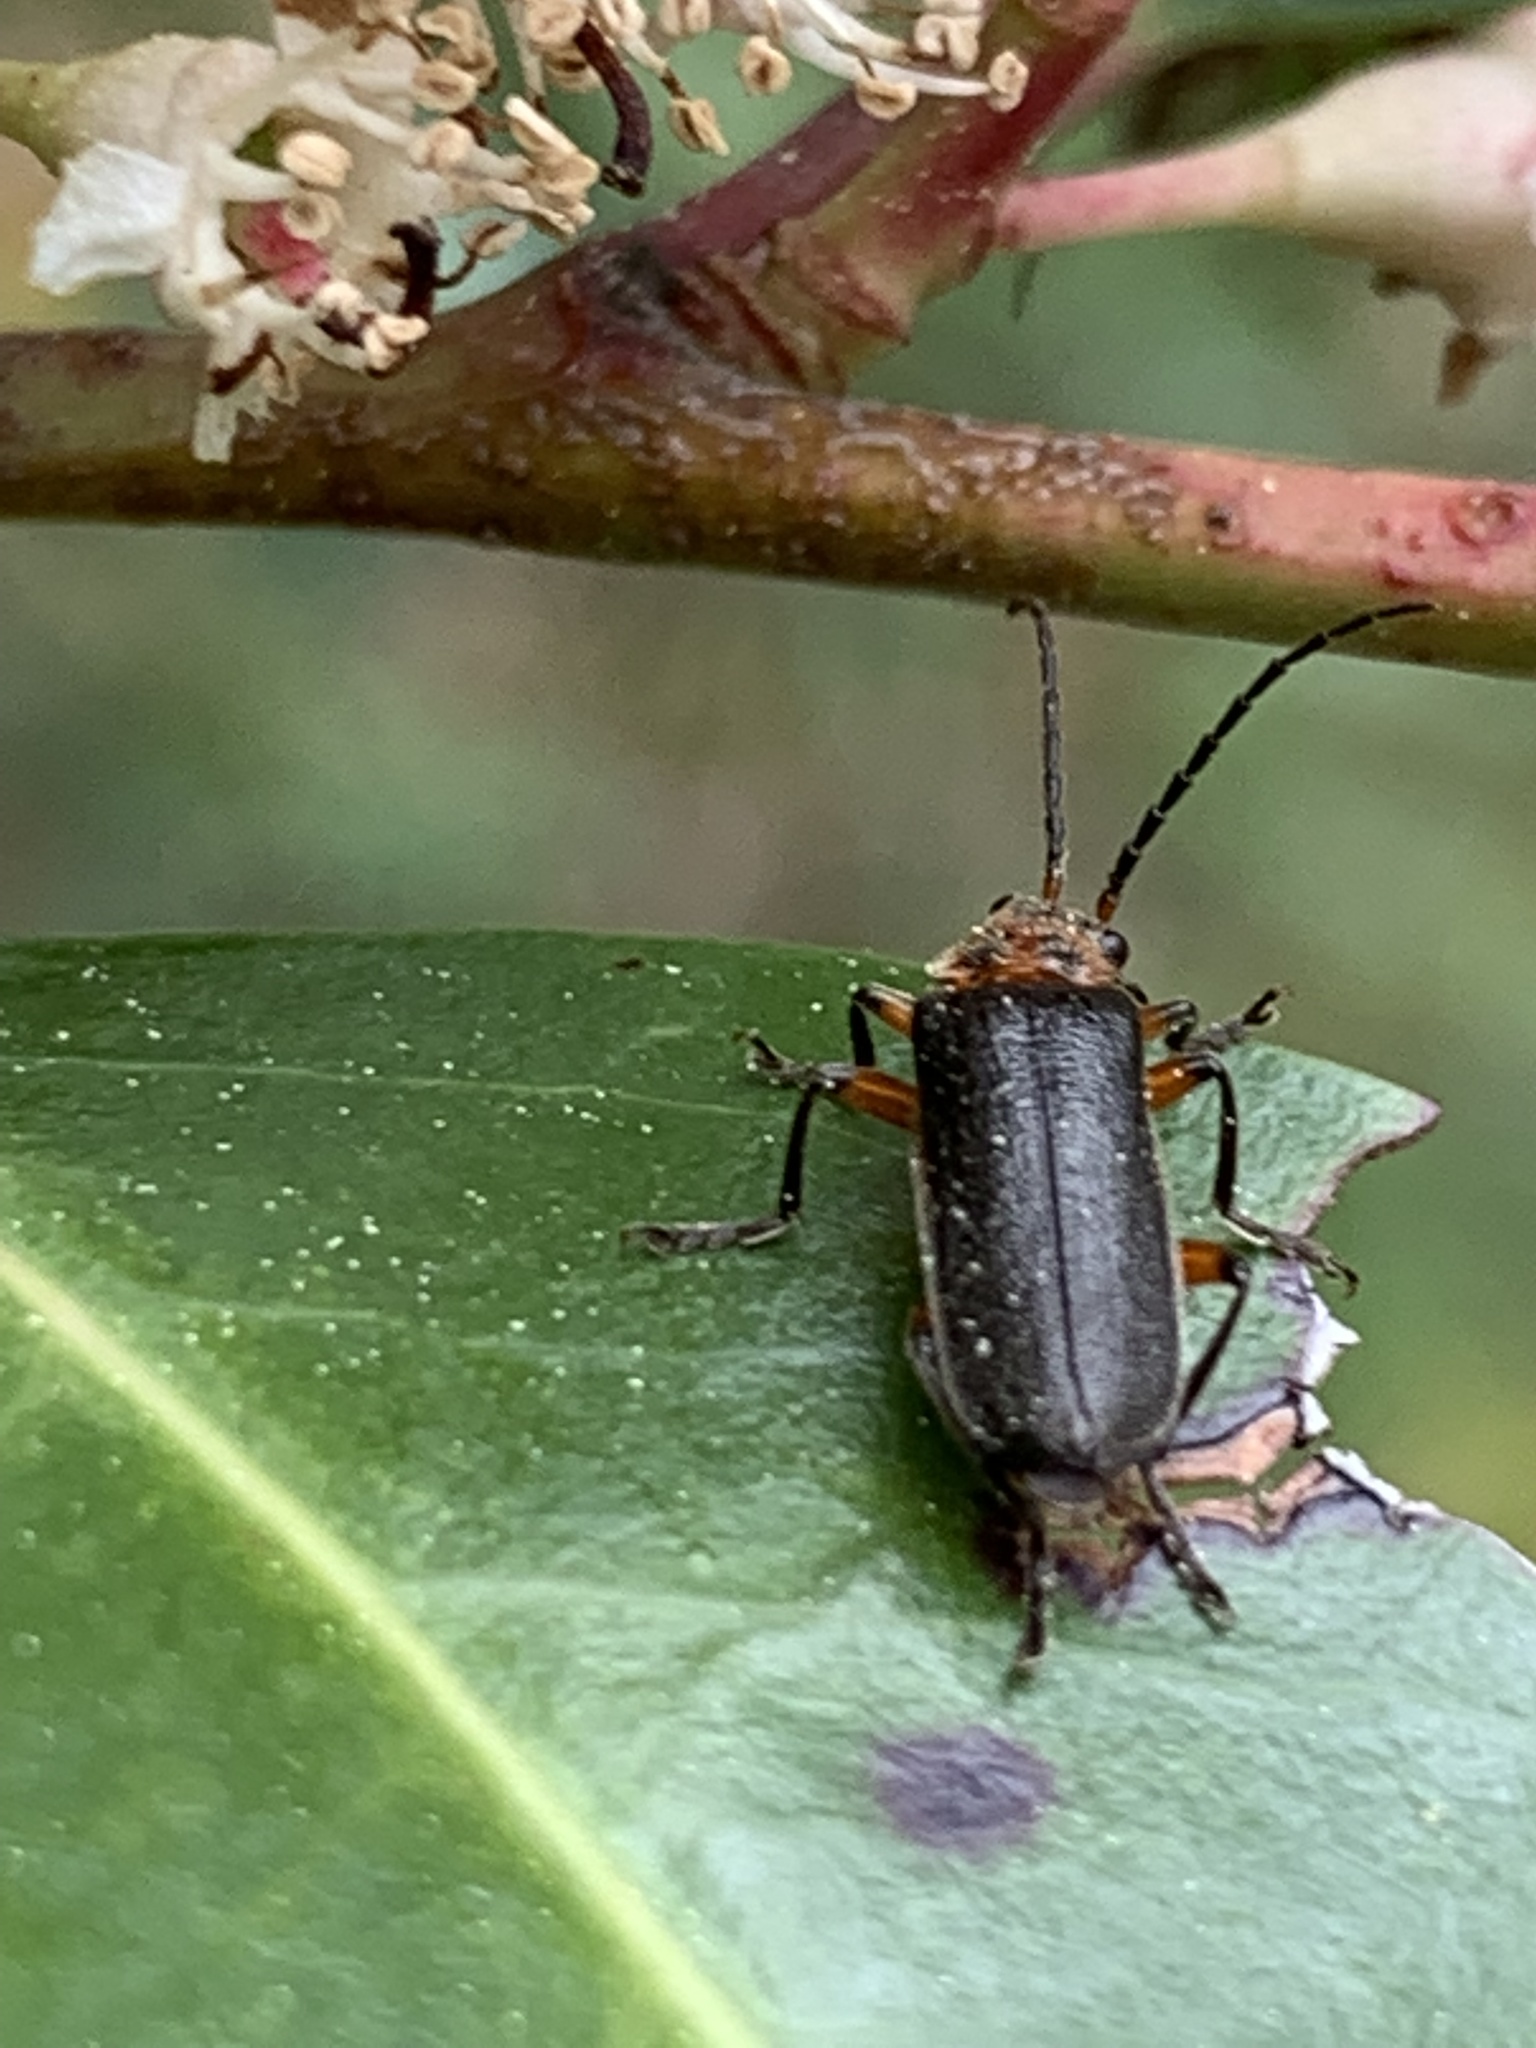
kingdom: Animalia
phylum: Arthropoda
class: Insecta
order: Coleoptera
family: Cantharidae
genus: Atalantycha
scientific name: Atalantycha bilineata
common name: Two-lined leatherwing
